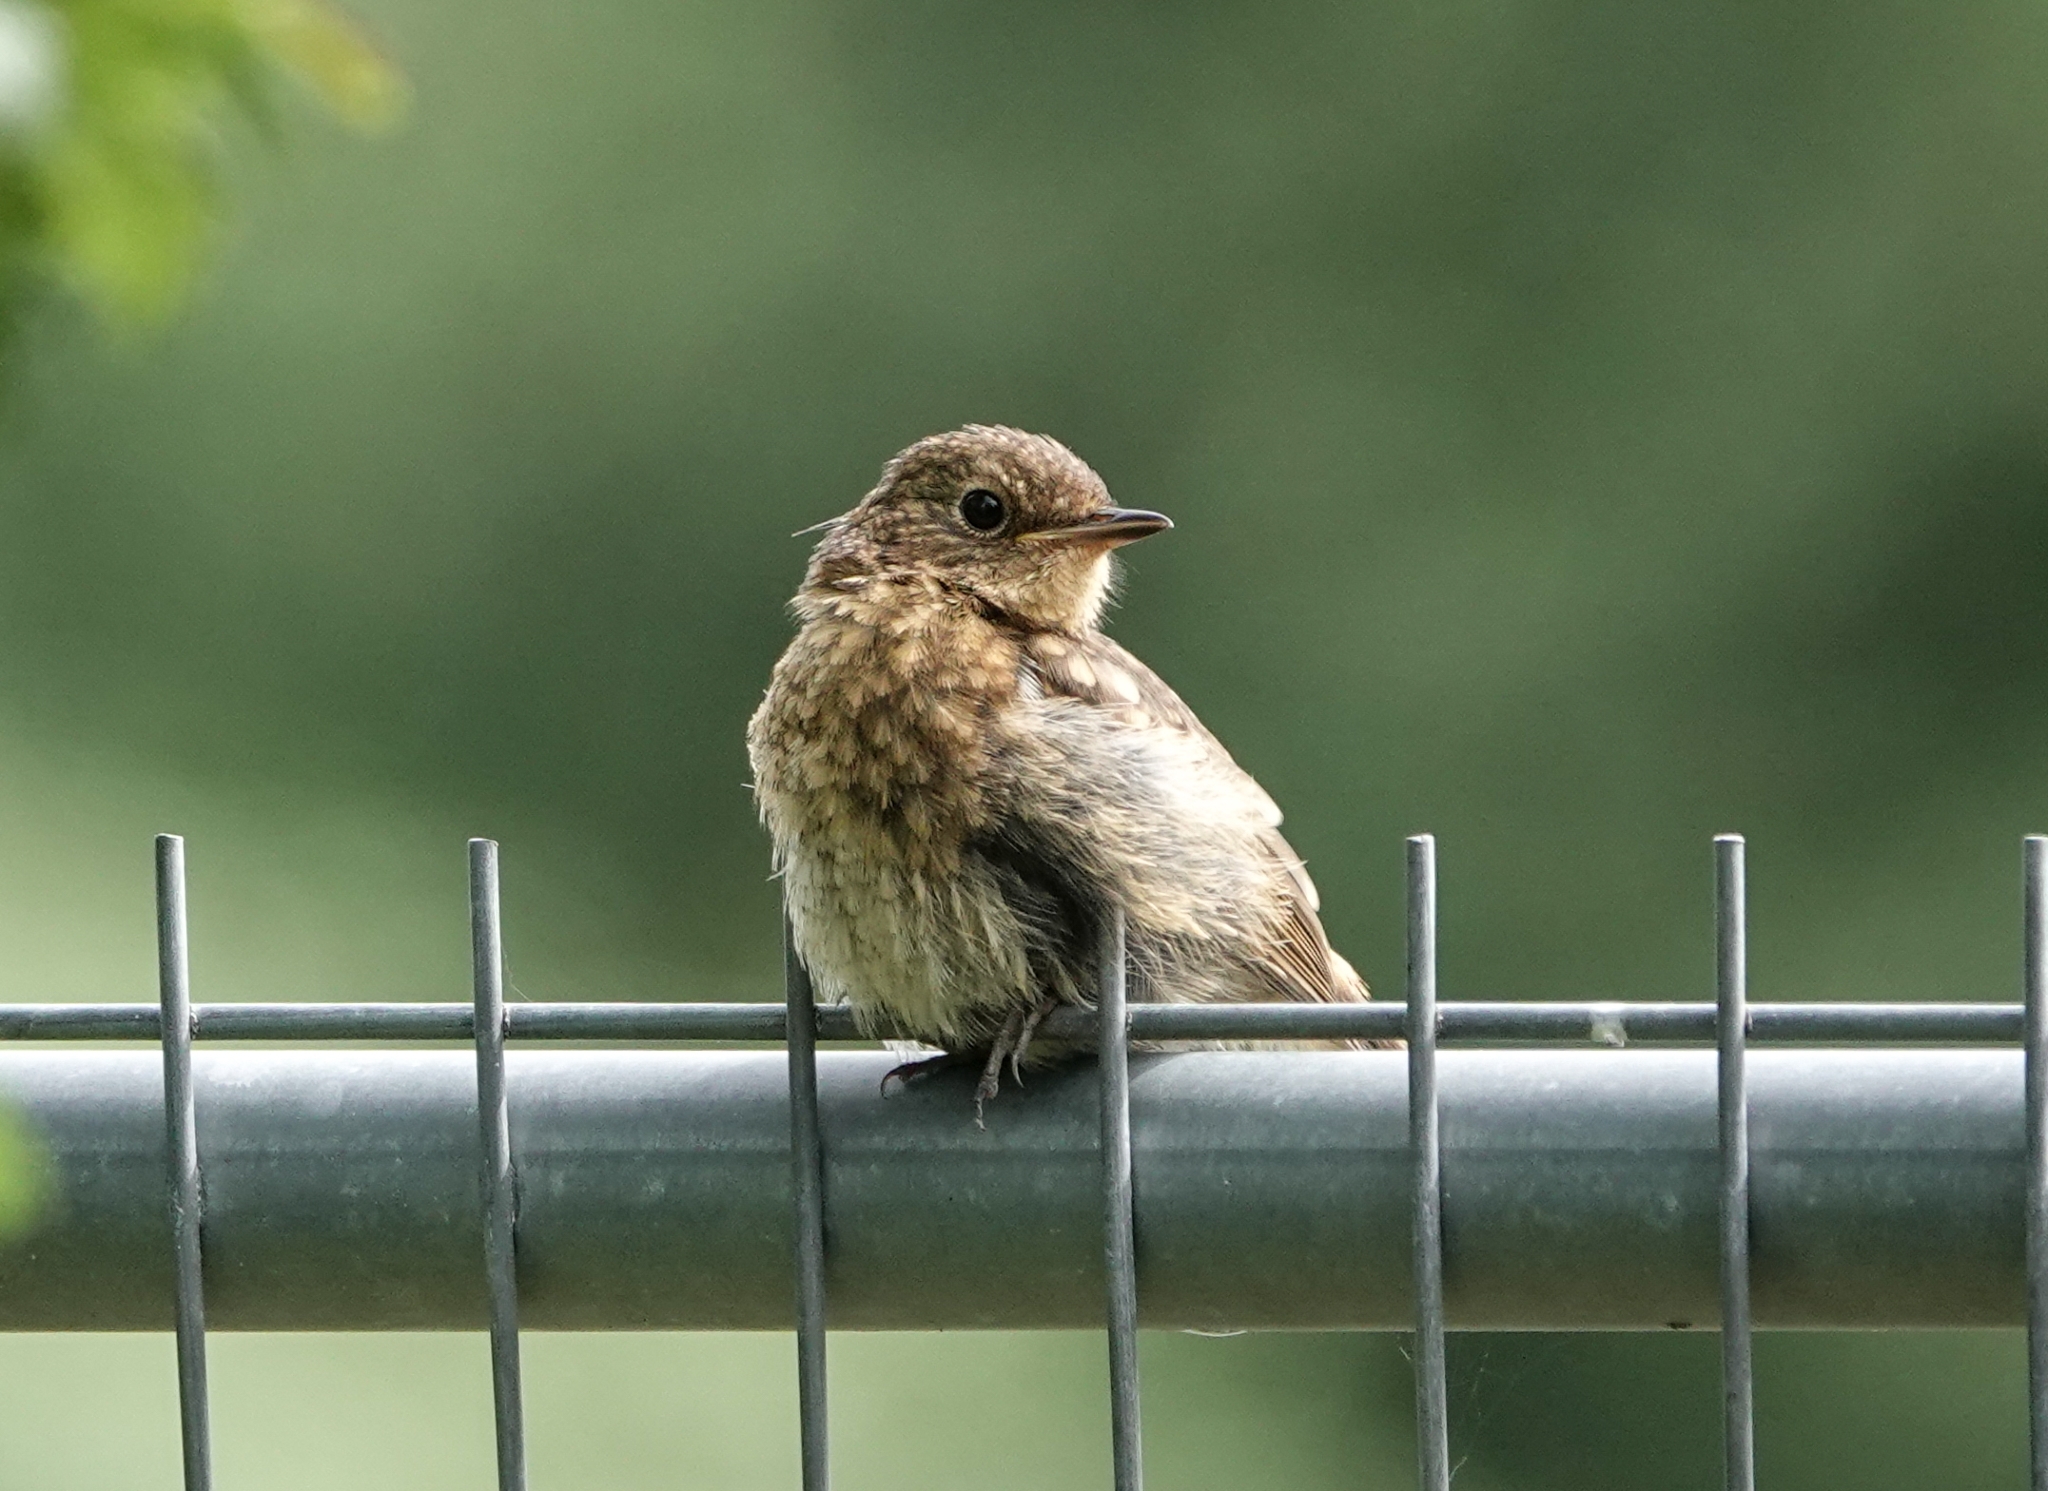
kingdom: Animalia
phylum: Chordata
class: Aves
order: Passeriformes
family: Muscicapidae
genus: Erithacus
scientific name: Erithacus rubecula
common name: European robin
